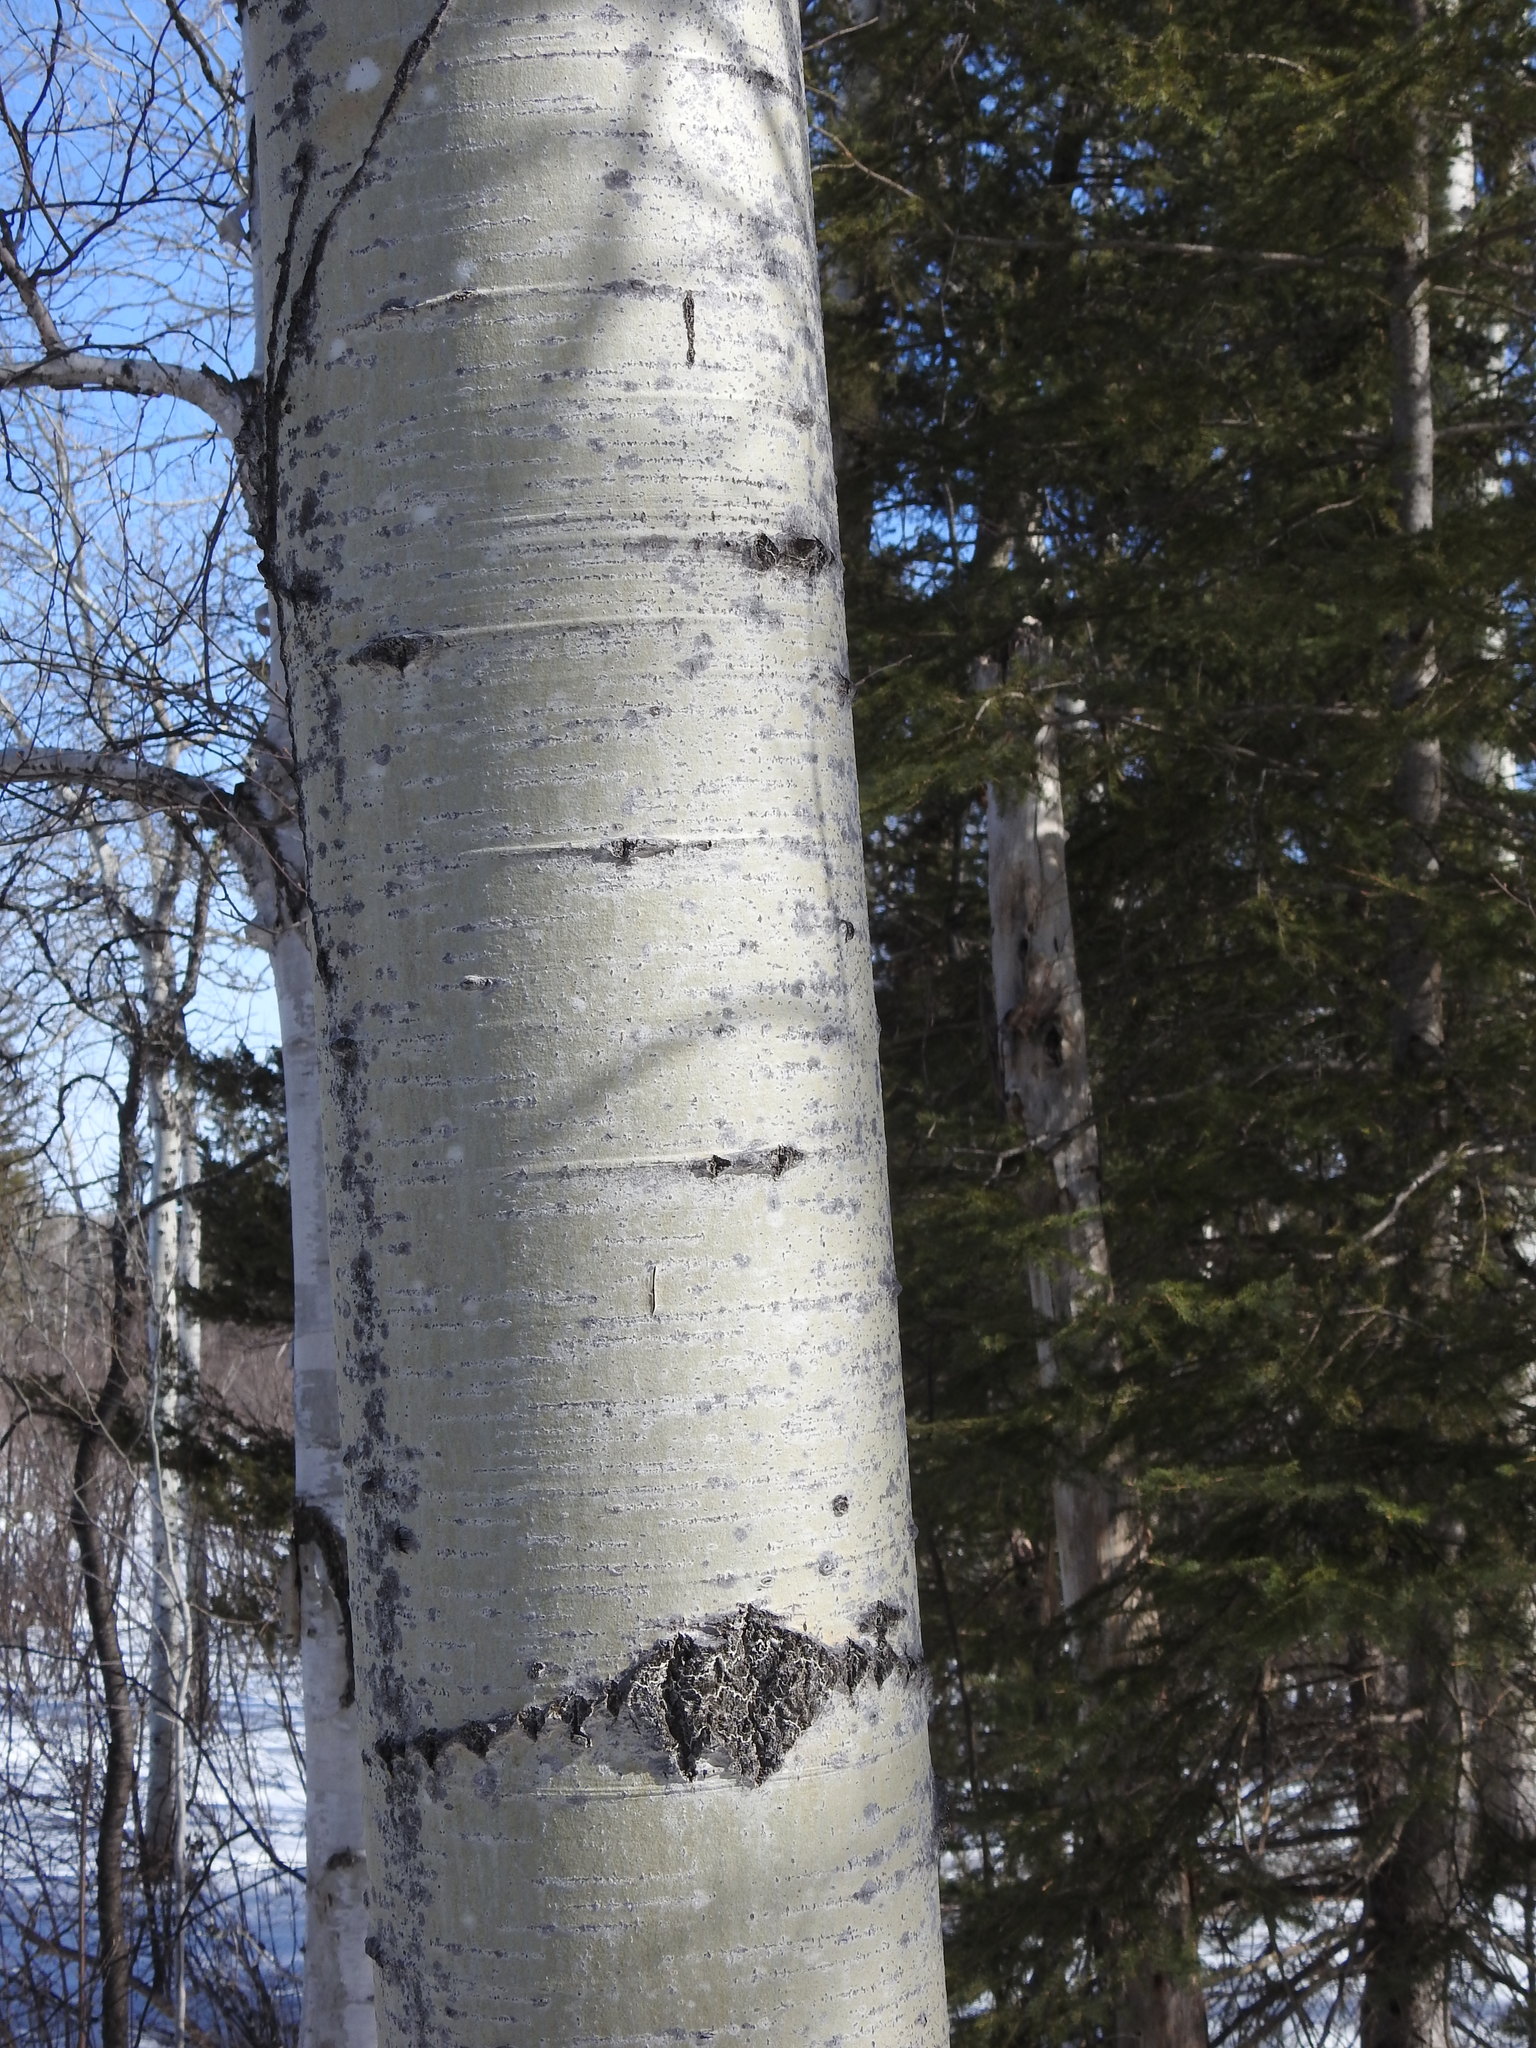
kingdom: Plantae
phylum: Tracheophyta
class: Magnoliopsida
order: Malpighiales
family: Salicaceae
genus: Populus
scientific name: Populus tremuloides
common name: Quaking aspen
